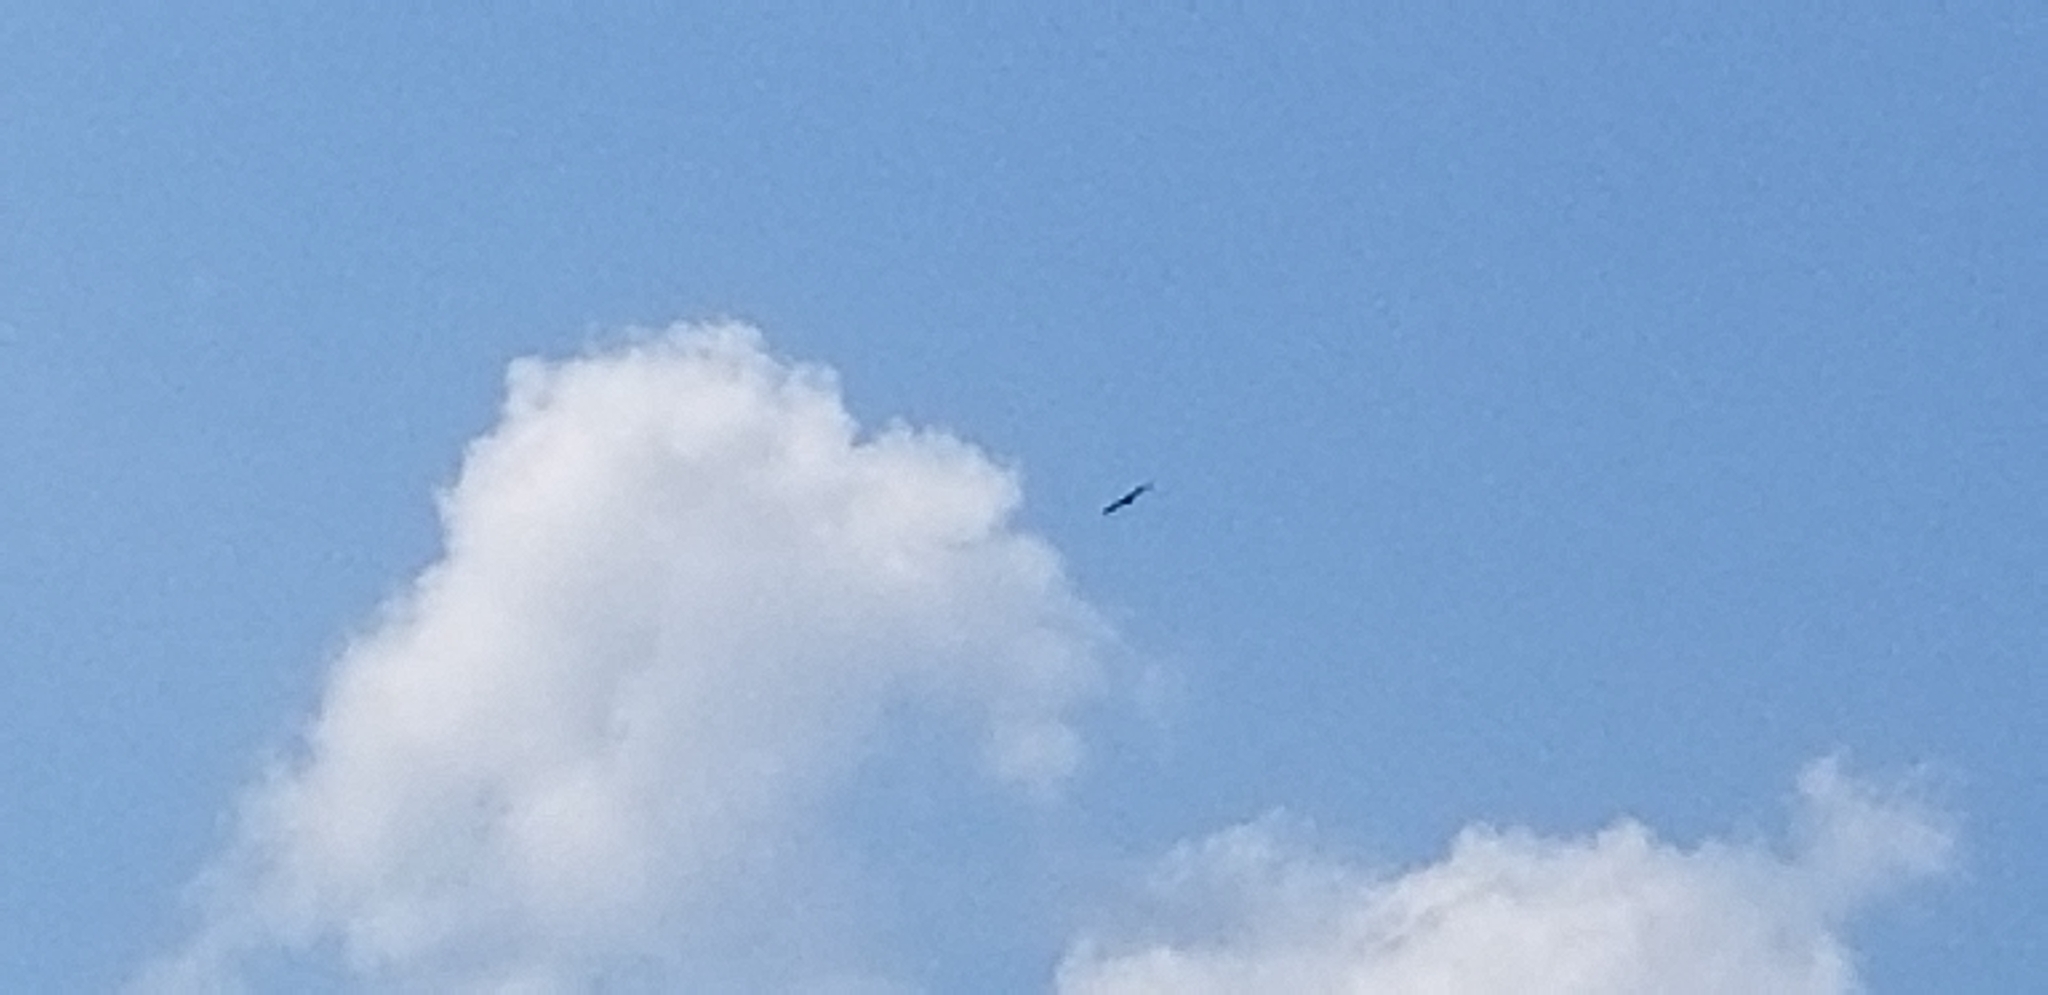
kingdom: Animalia
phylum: Chordata
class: Aves
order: Accipitriformes
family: Accipitridae
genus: Haliaeetus
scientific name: Haliaeetus leucocephalus
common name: Bald eagle
